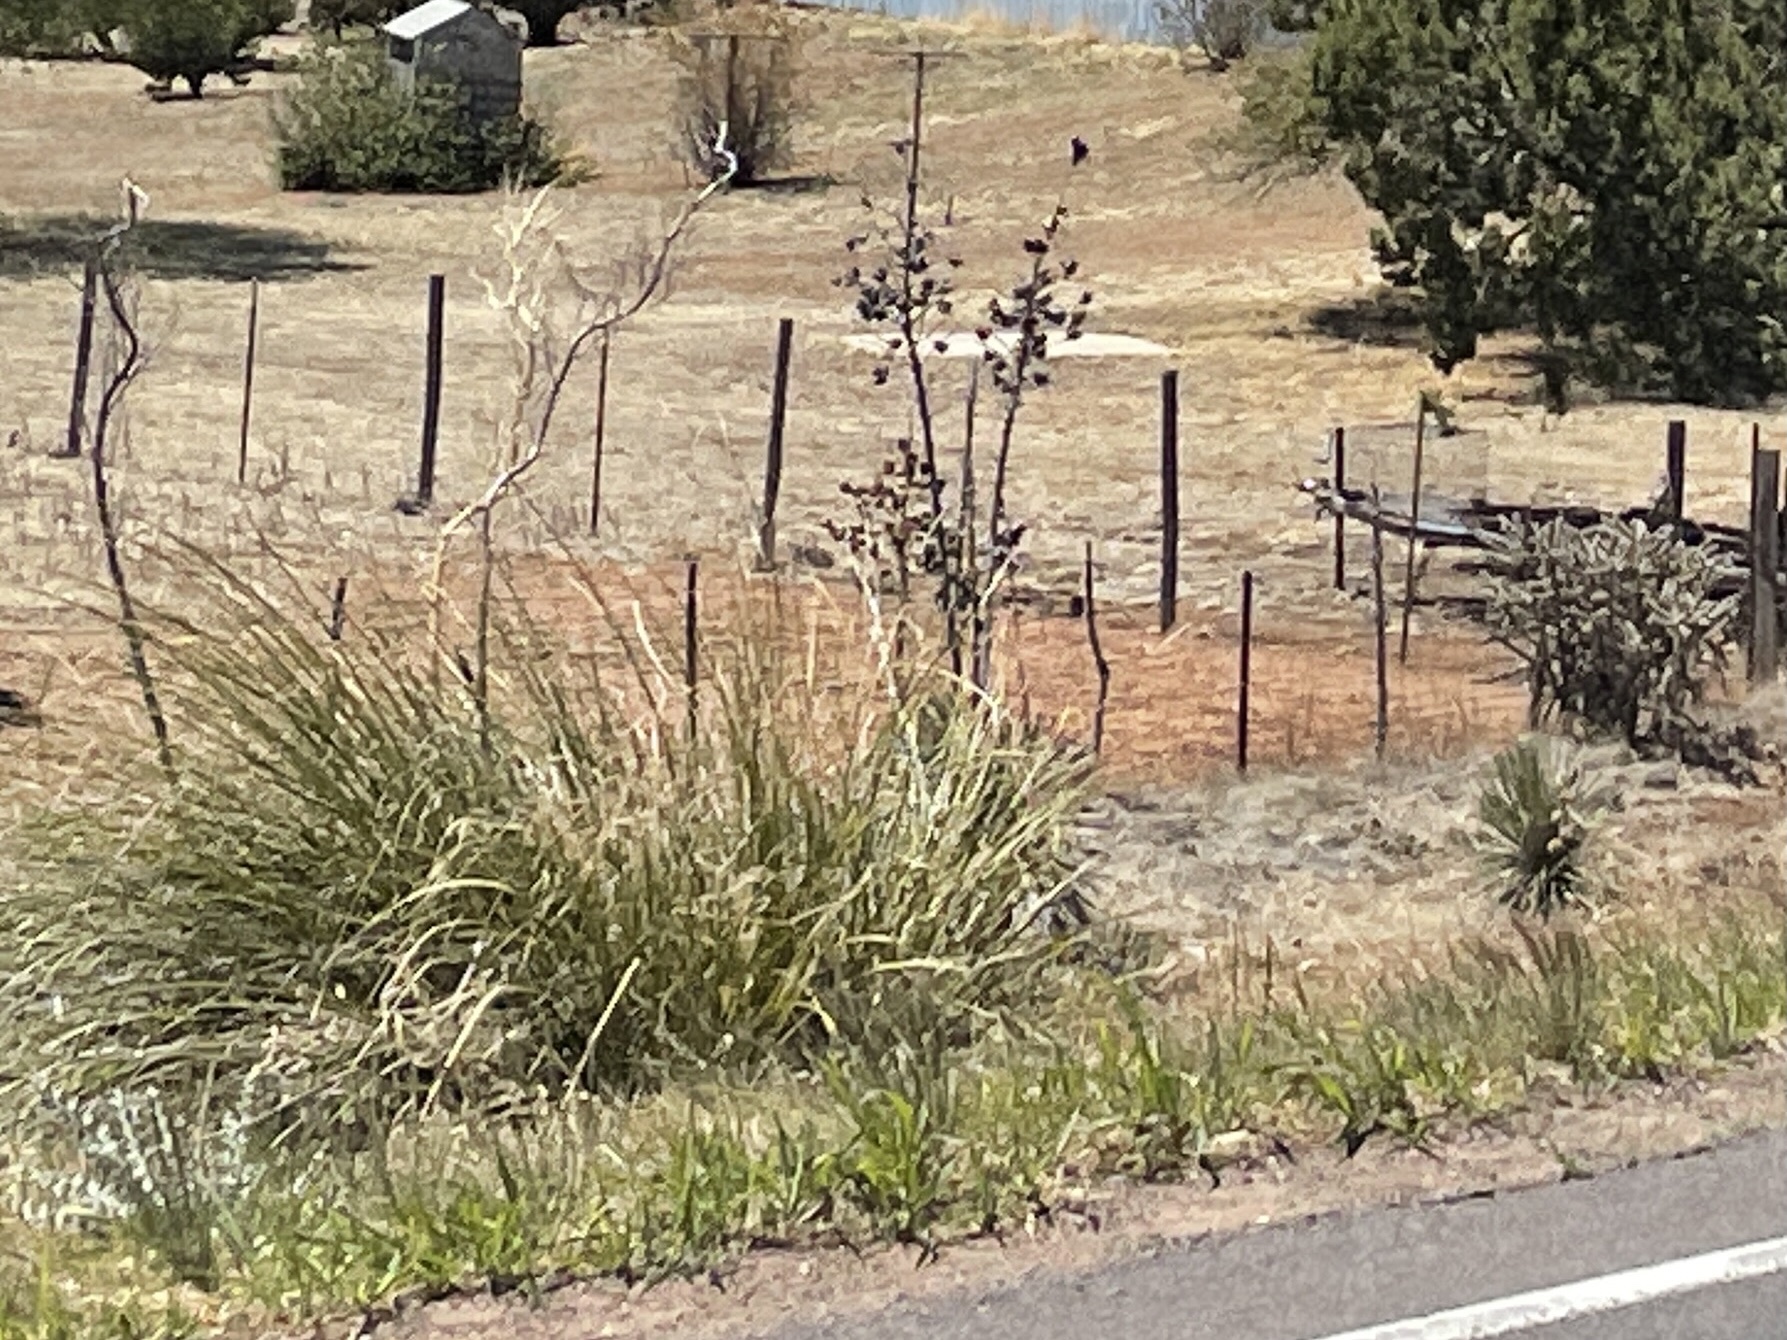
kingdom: Plantae
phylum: Tracheophyta
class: Liliopsida
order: Asparagales
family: Asparagaceae
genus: Nolina
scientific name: Nolina microcarpa
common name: Bear-grass
